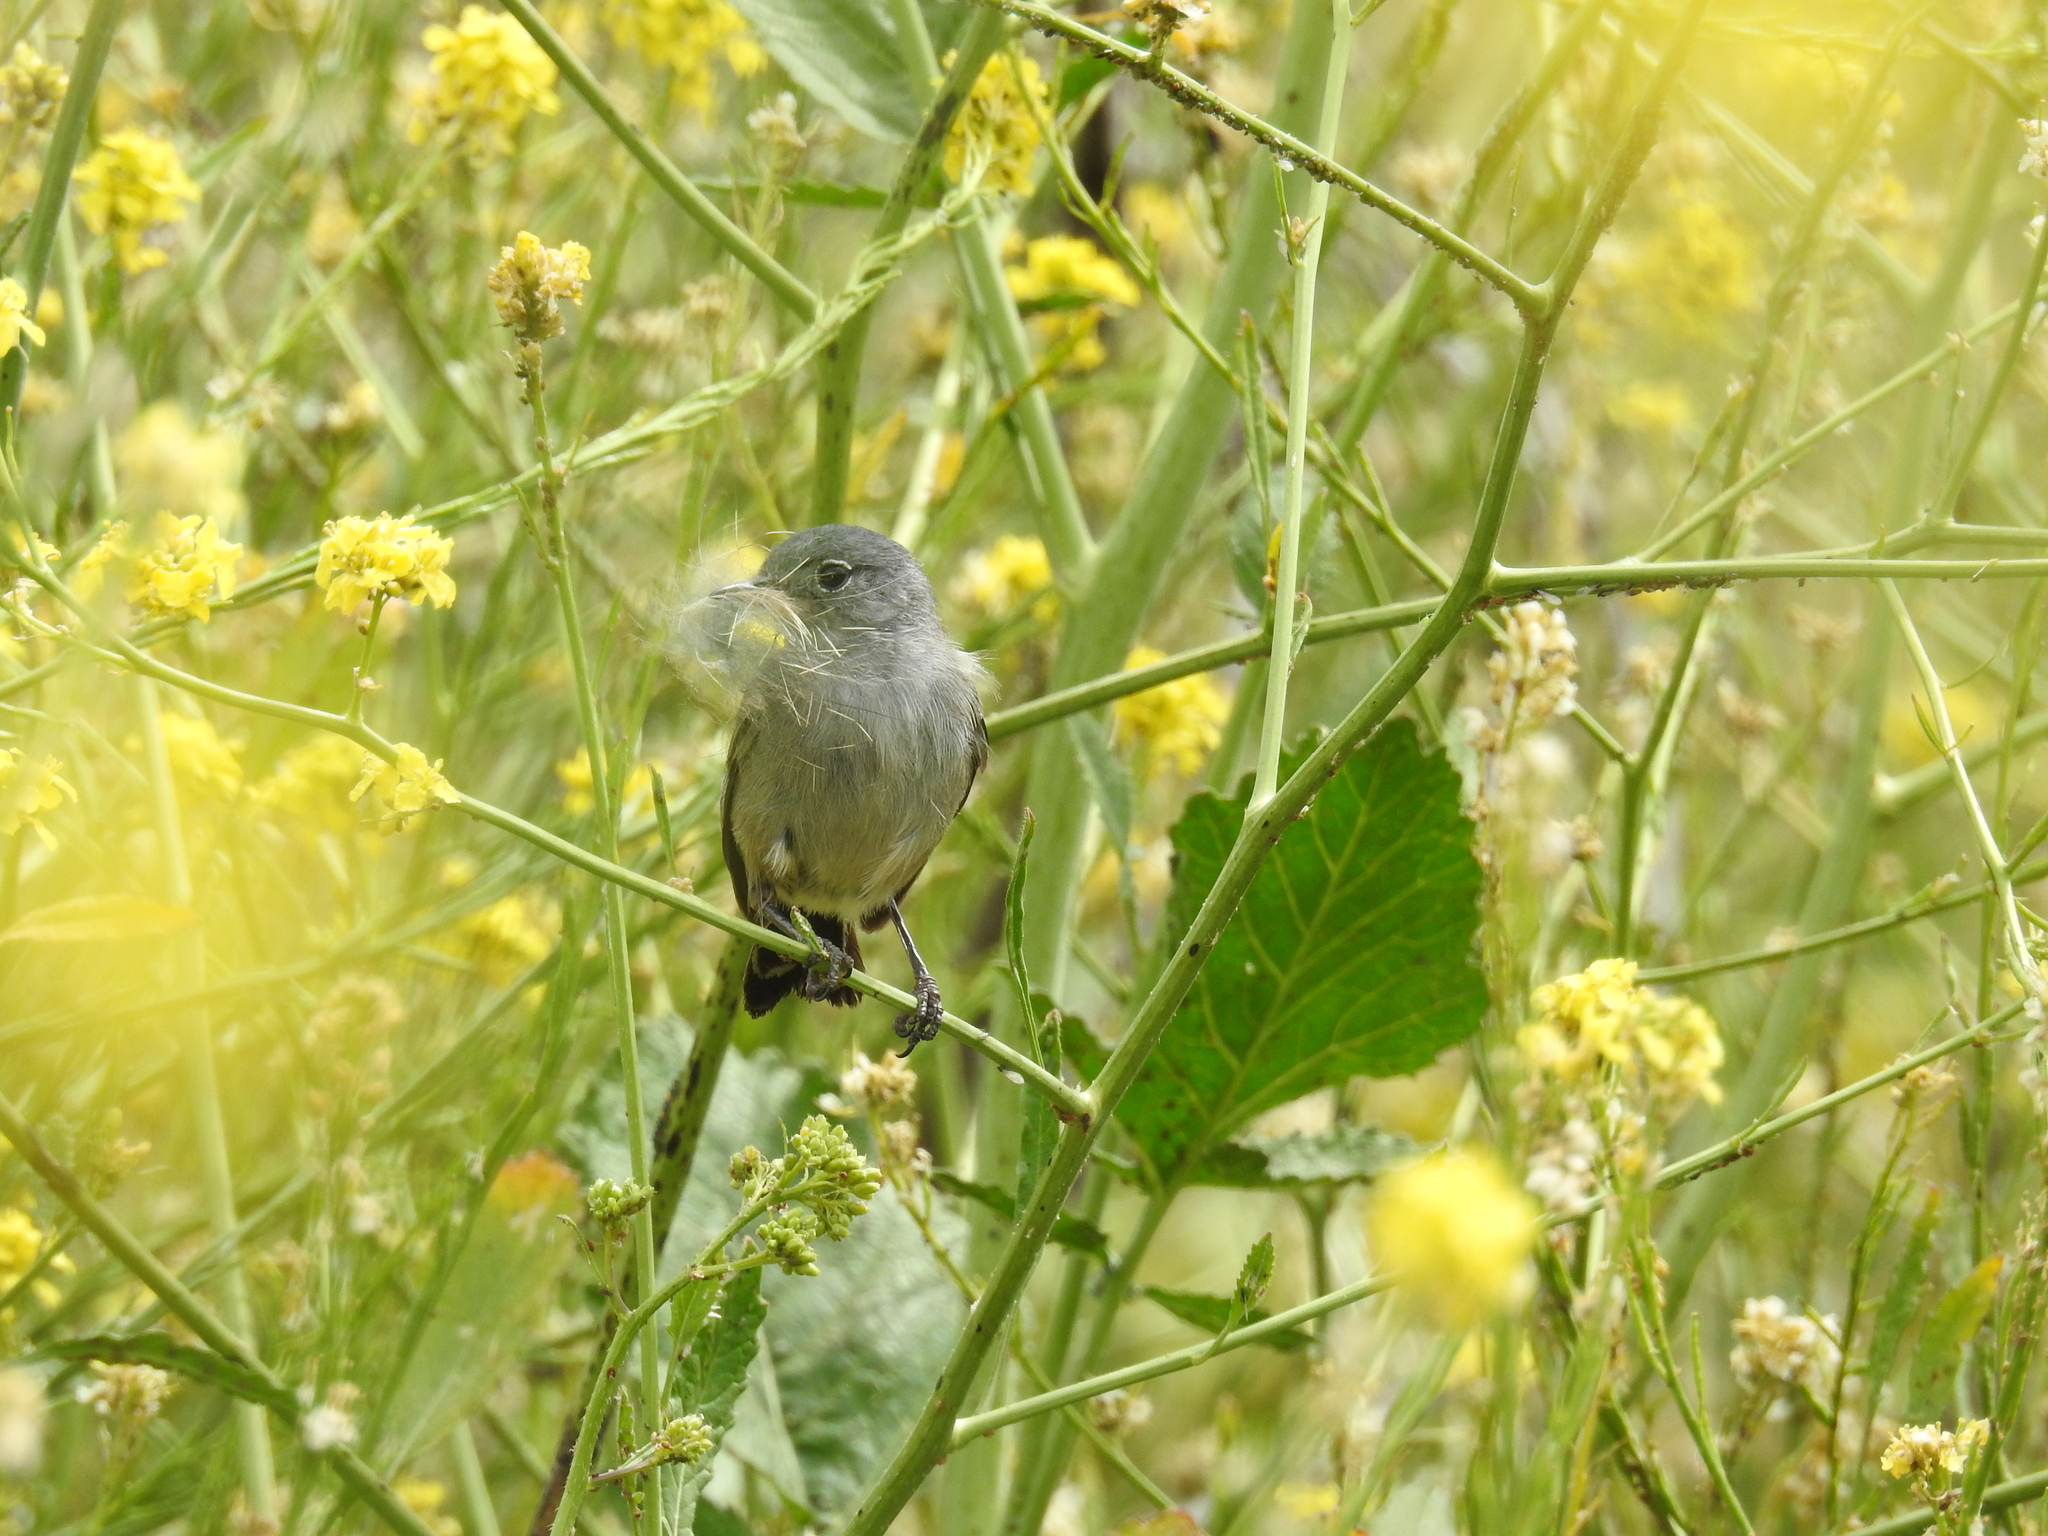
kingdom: Animalia
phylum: Chordata
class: Aves
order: Passeriformes
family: Polioptilidae
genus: Polioptila
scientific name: Polioptila californica
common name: California gnatcatcher
